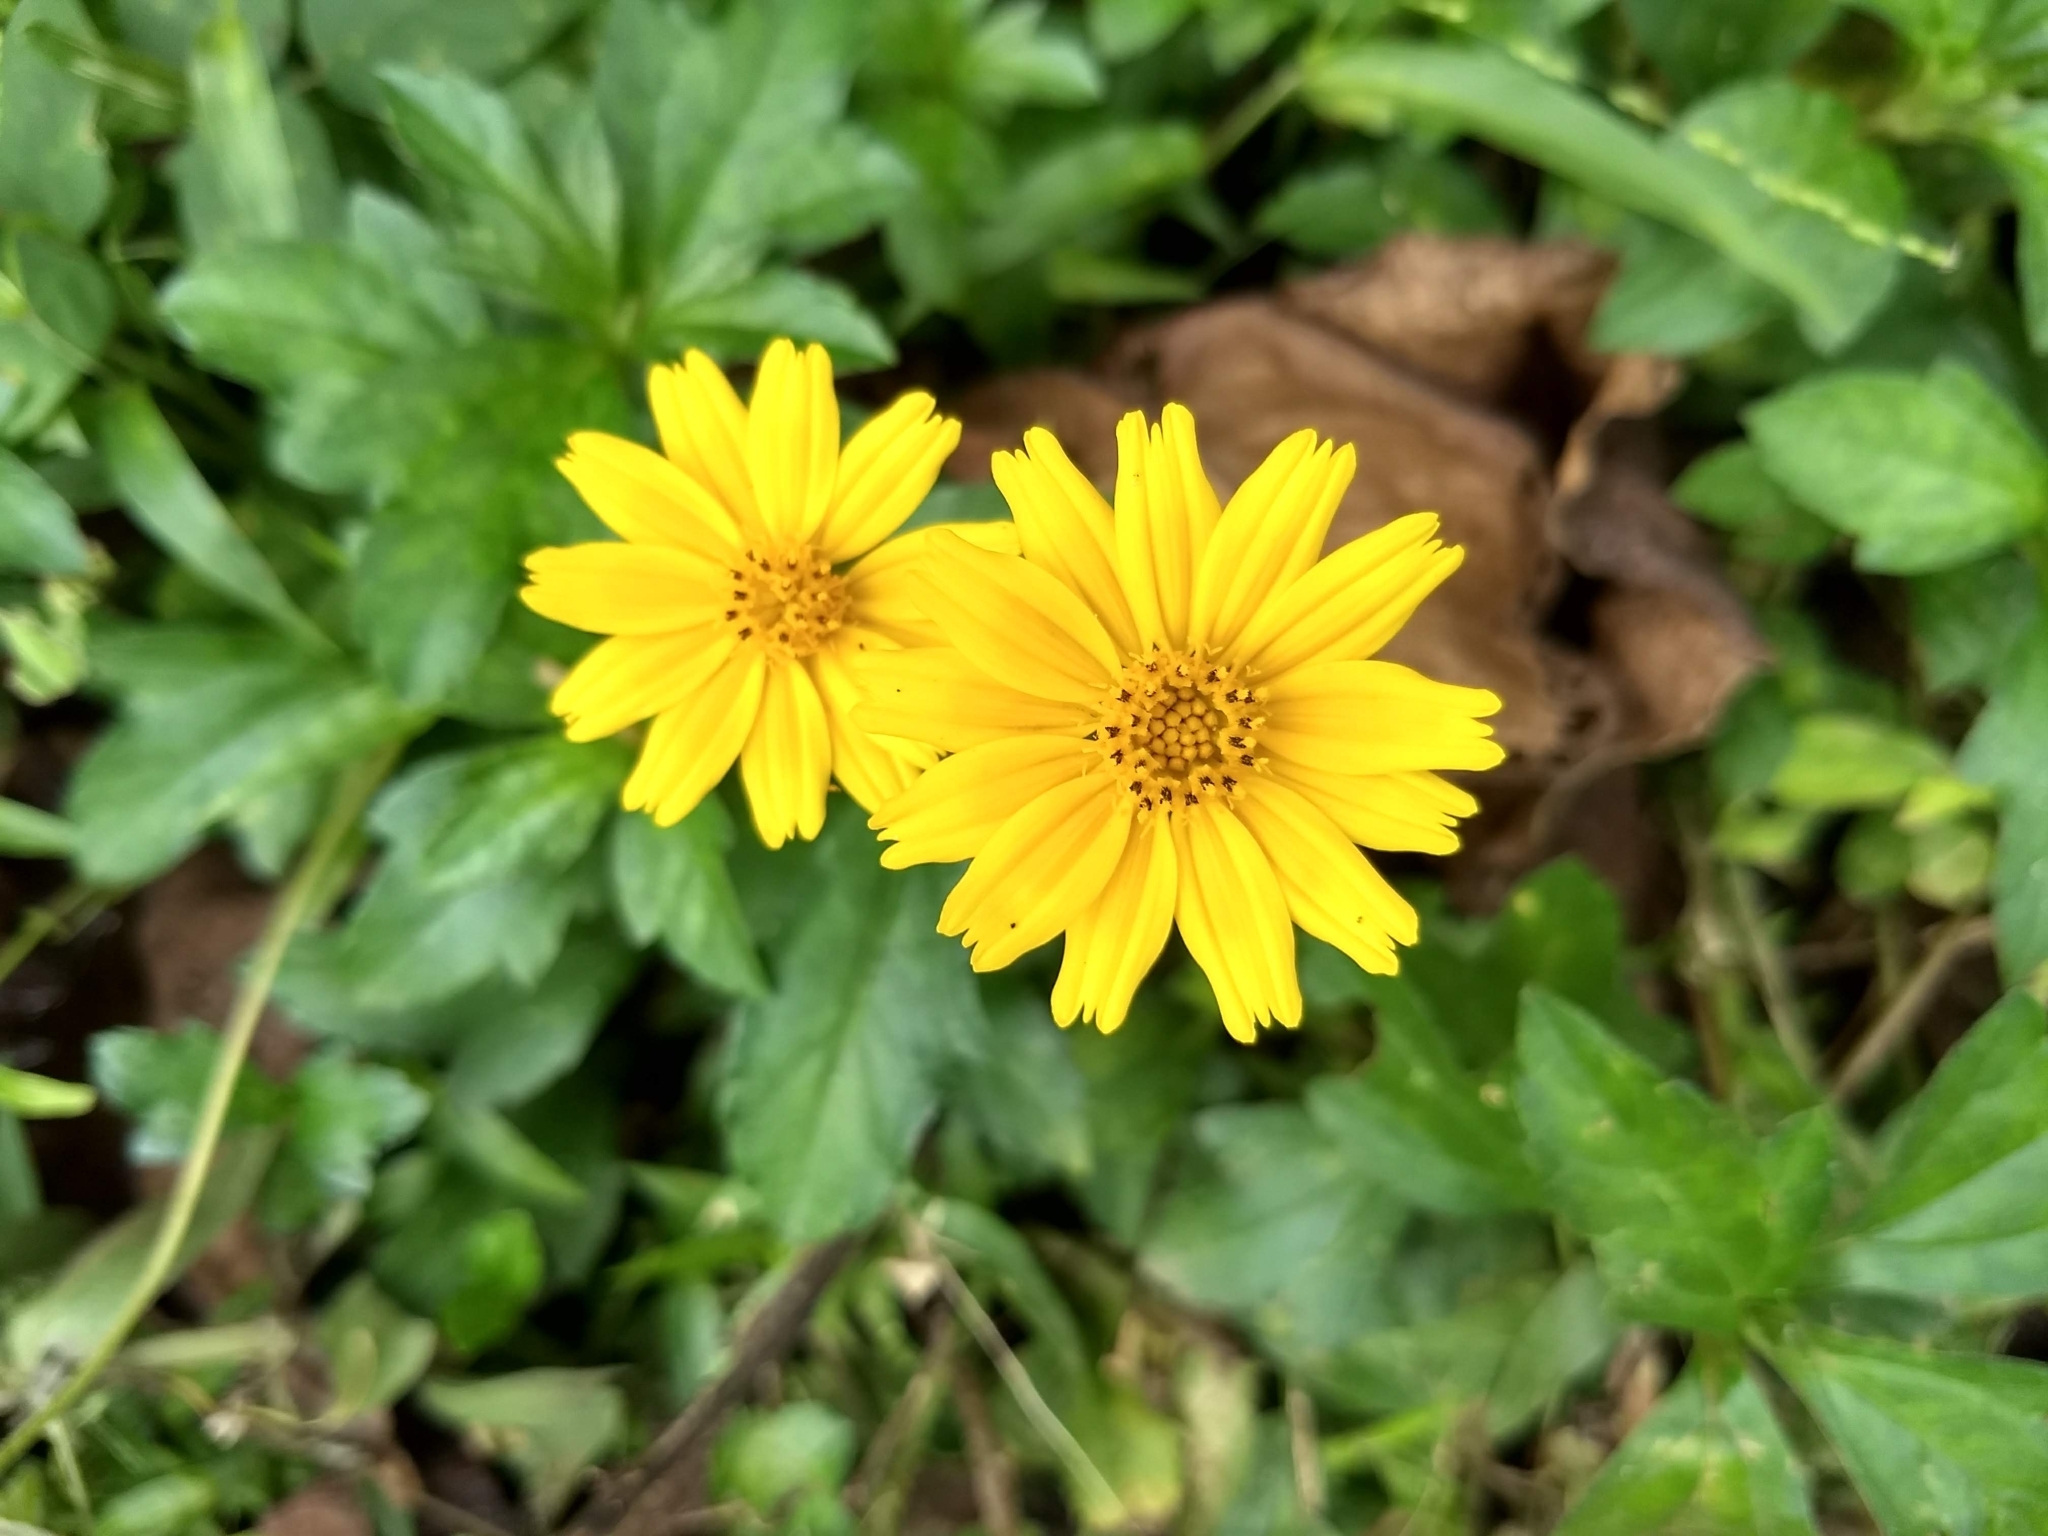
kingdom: Plantae
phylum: Tracheophyta
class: Magnoliopsida
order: Asterales
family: Asteraceae
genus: Sphagneticola
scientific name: Sphagneticola trilobata
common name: Bay biscayne creeping-oxeye
